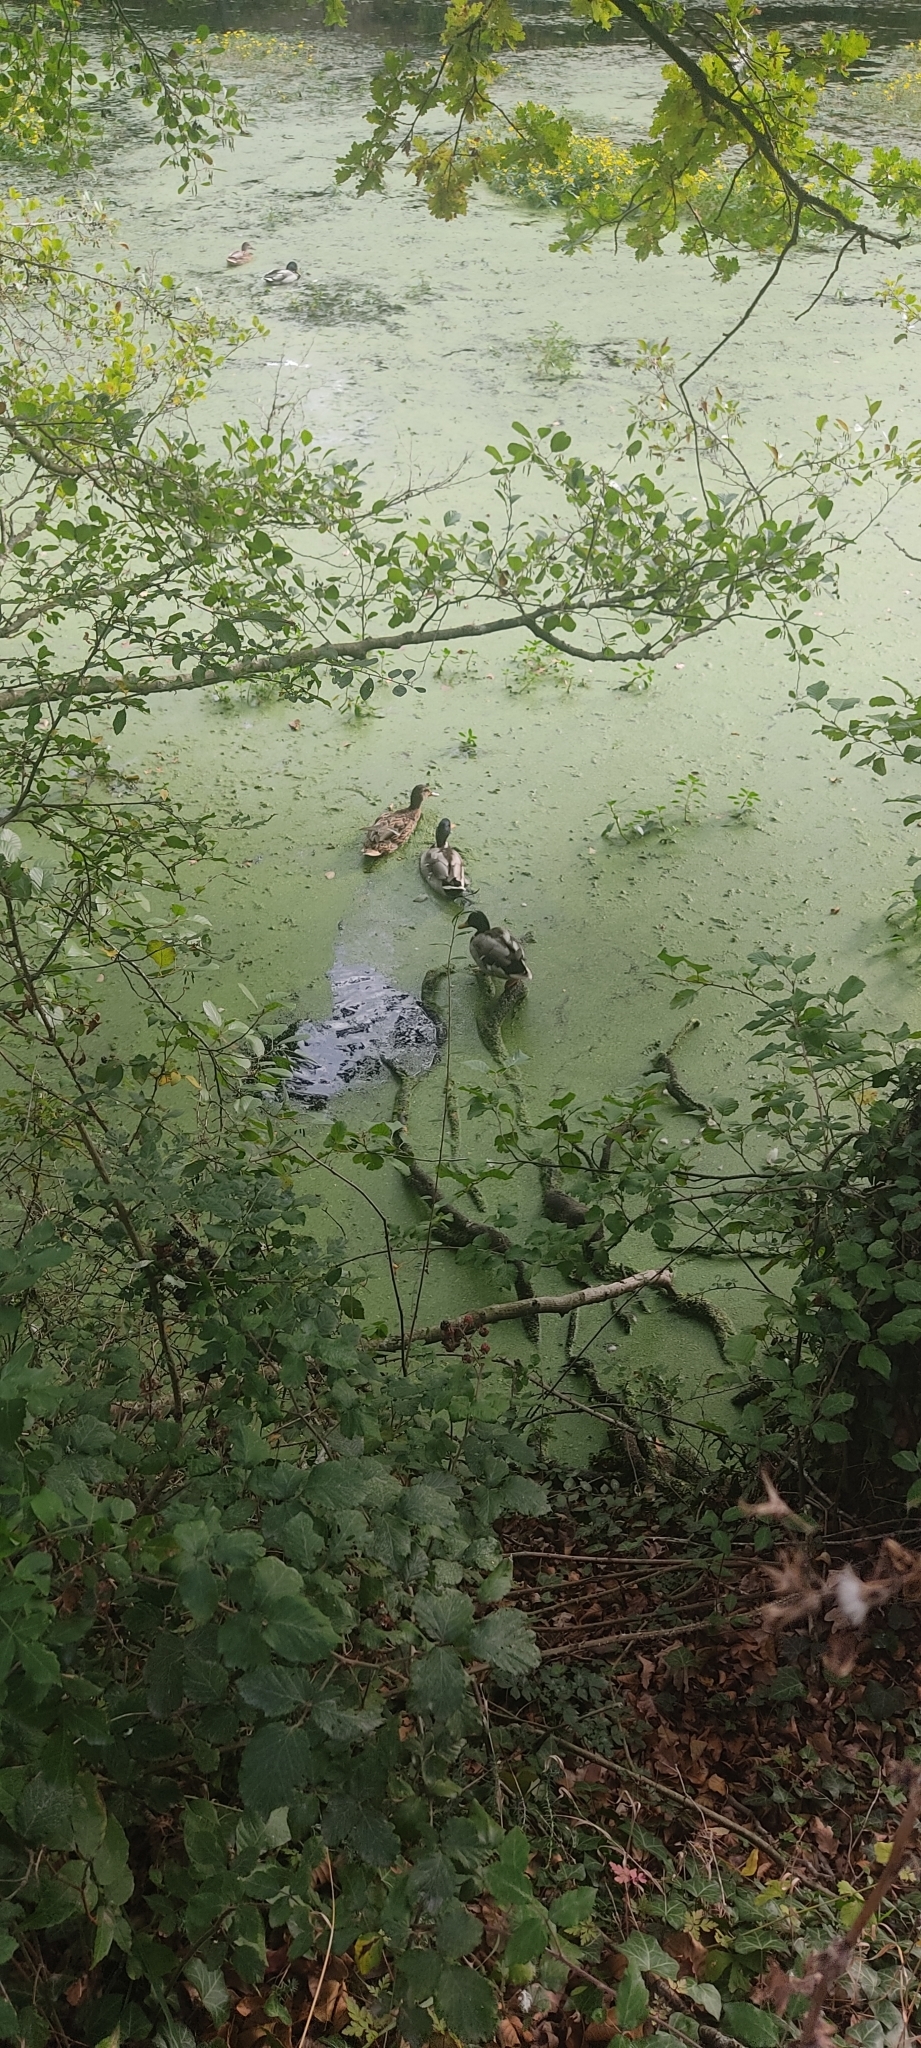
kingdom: Animalia
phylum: Chordata
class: Aves
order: Anseriformes
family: Anatidae
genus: Anas
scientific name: Anas platyrhynchos
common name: Mallard
